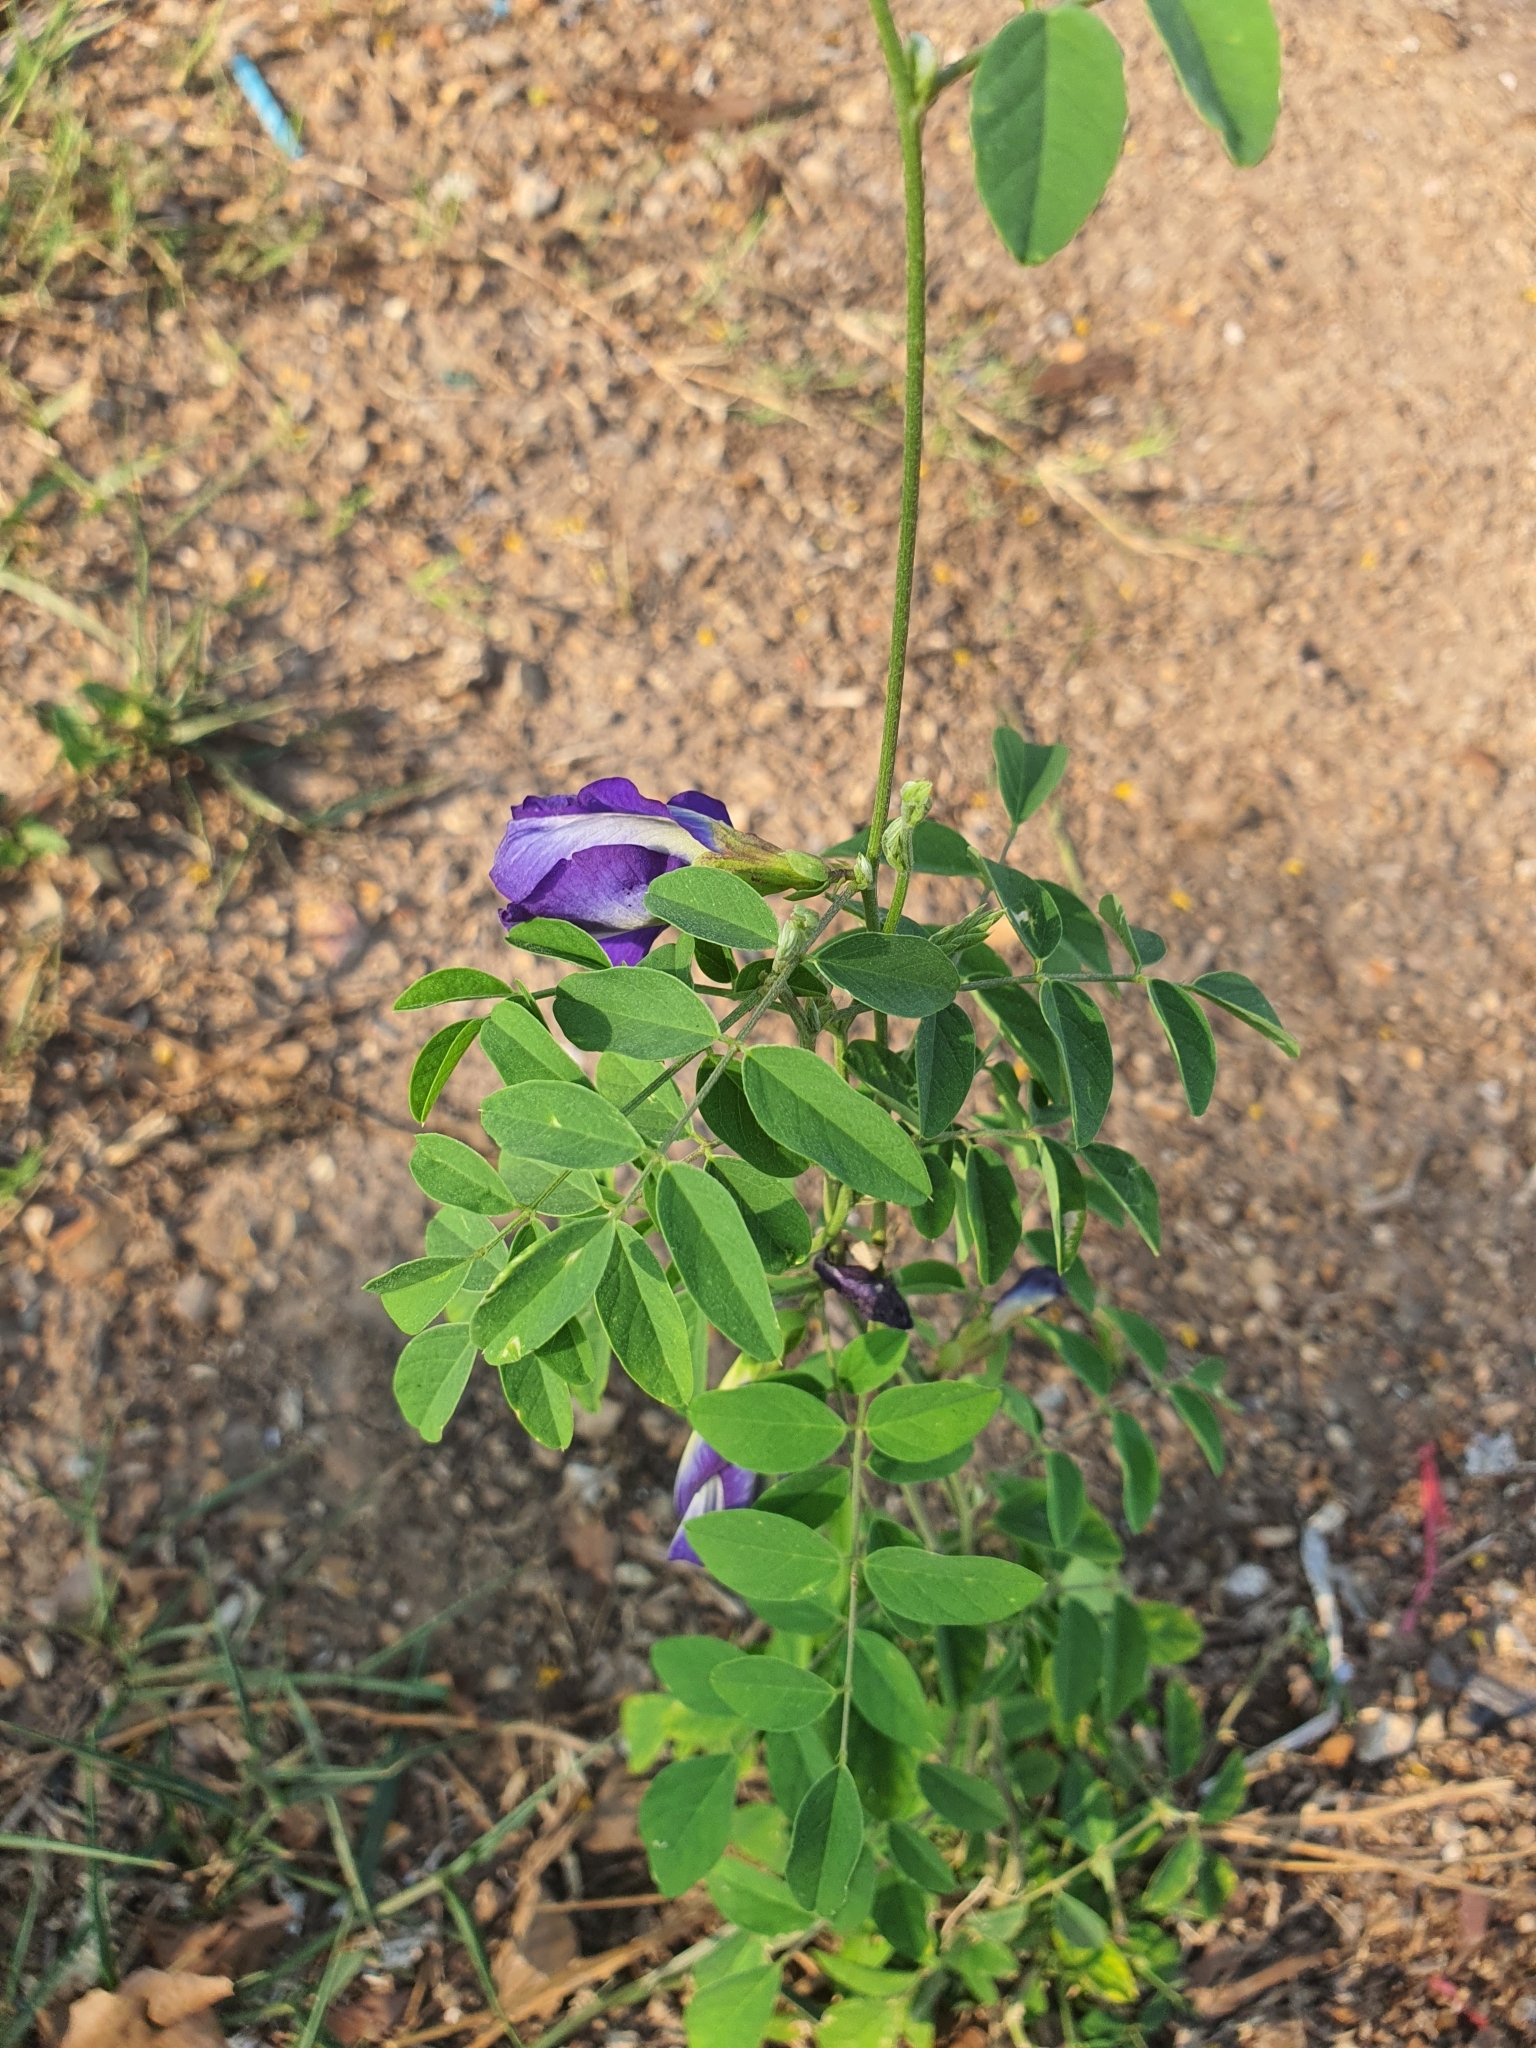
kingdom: Plantae
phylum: Tracheophyta
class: Magnoliopsida
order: Fabales
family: Fabaceae
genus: Clitoria
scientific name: Clitoria ternatea
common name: Asian pigeonwings
